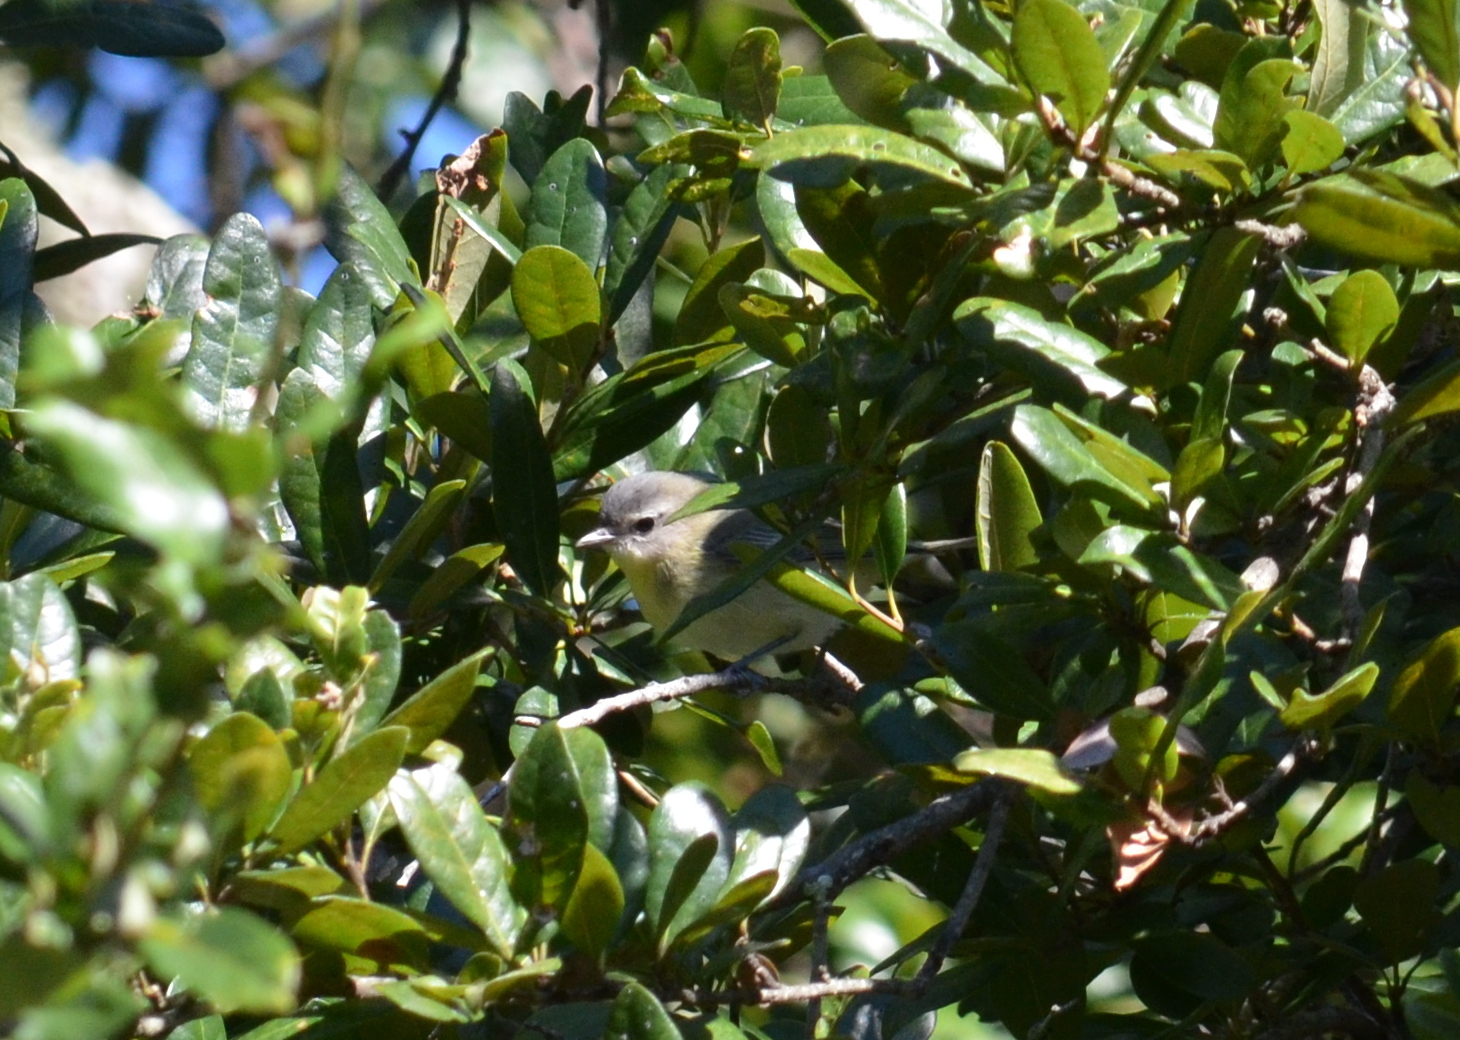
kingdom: Animalia
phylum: Chordata
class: Aves
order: Passeriformes
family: Vireonidae
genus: Vireo
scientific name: Vireo philadelphicus
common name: Philadelphia vireo
